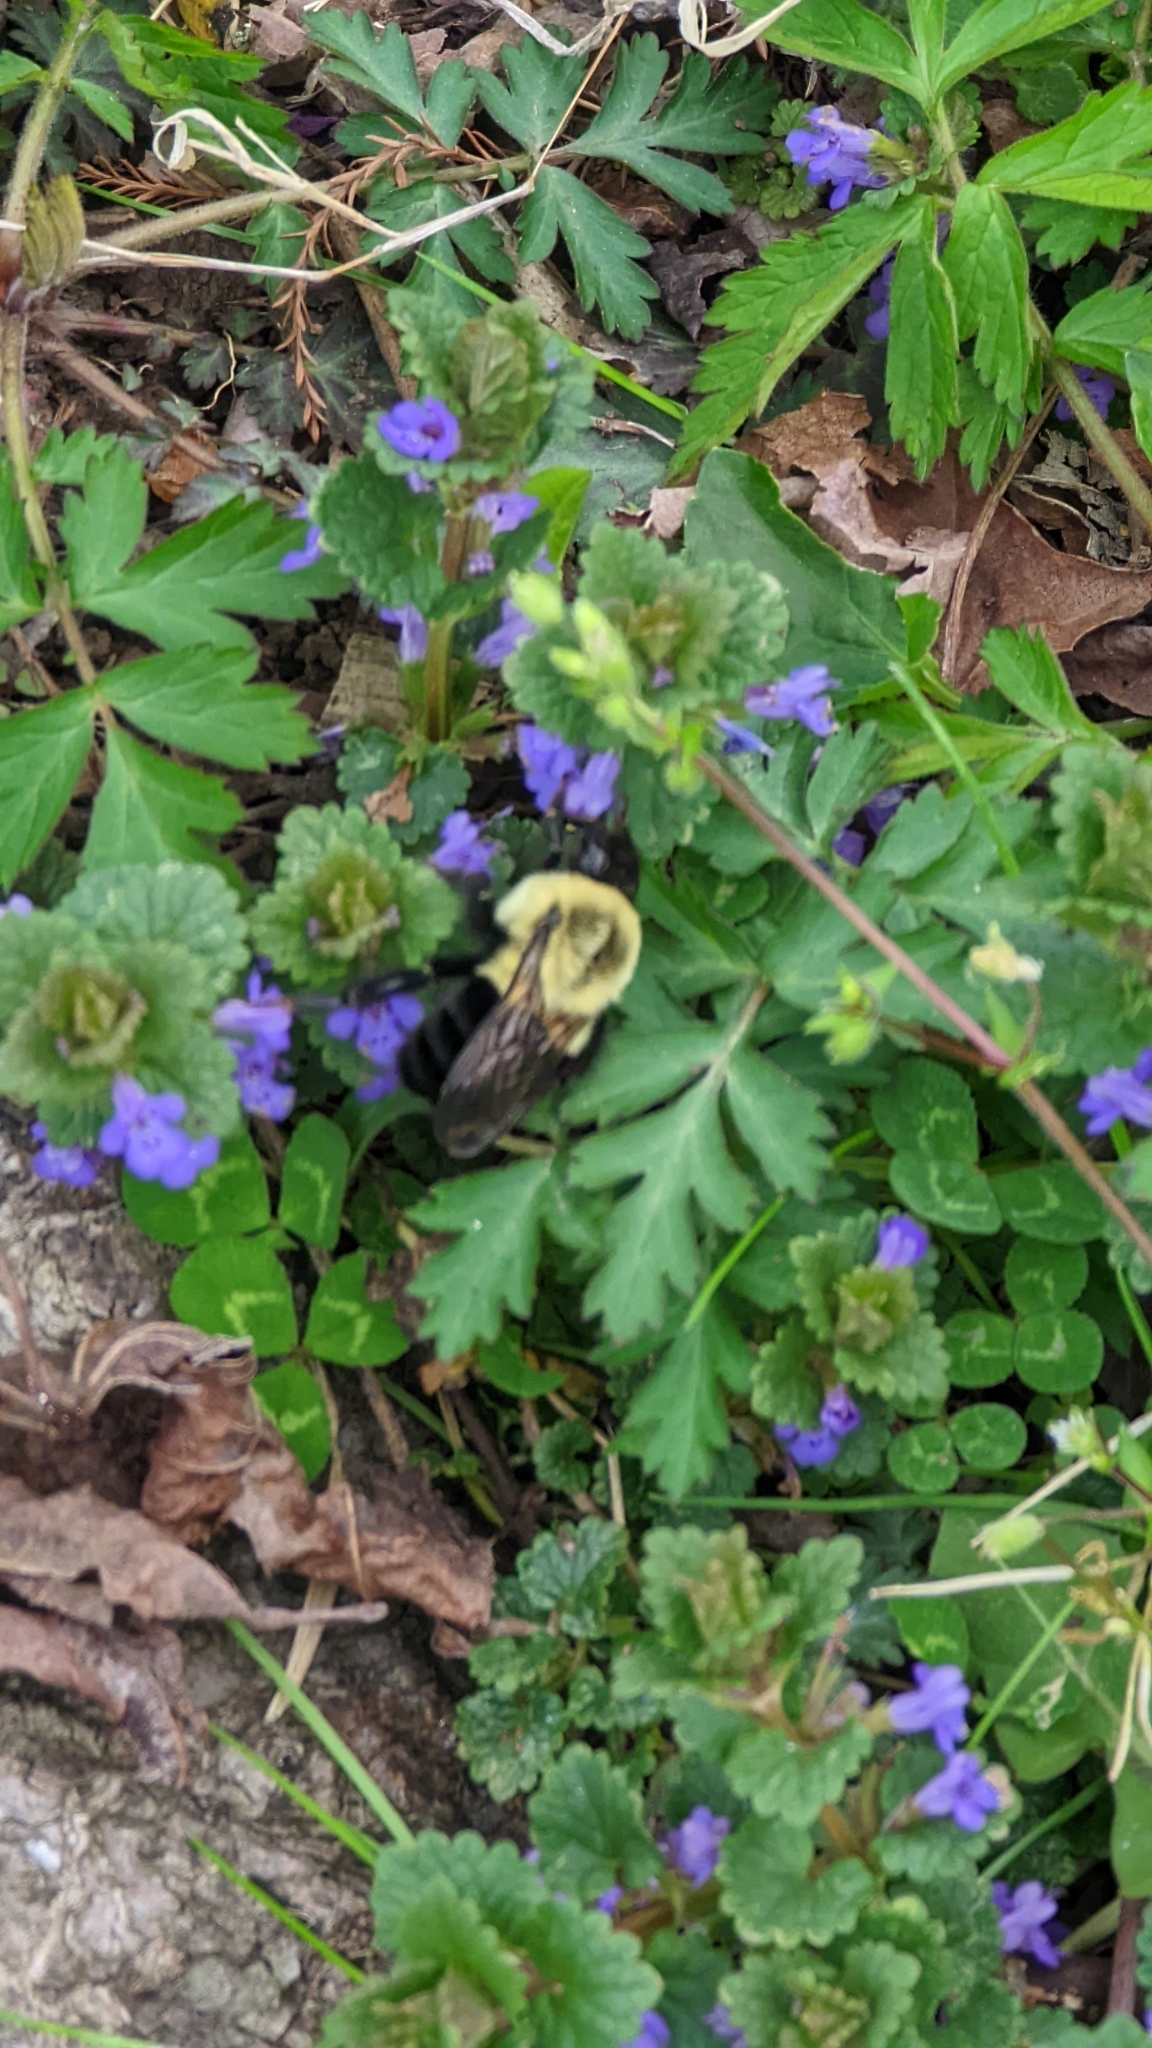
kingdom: Animalia
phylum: Arthropoda
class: Insecta
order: Hymenoptera
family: Apidae
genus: Bombus
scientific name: Bombus impatiens
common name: Common eastern bumble bee
